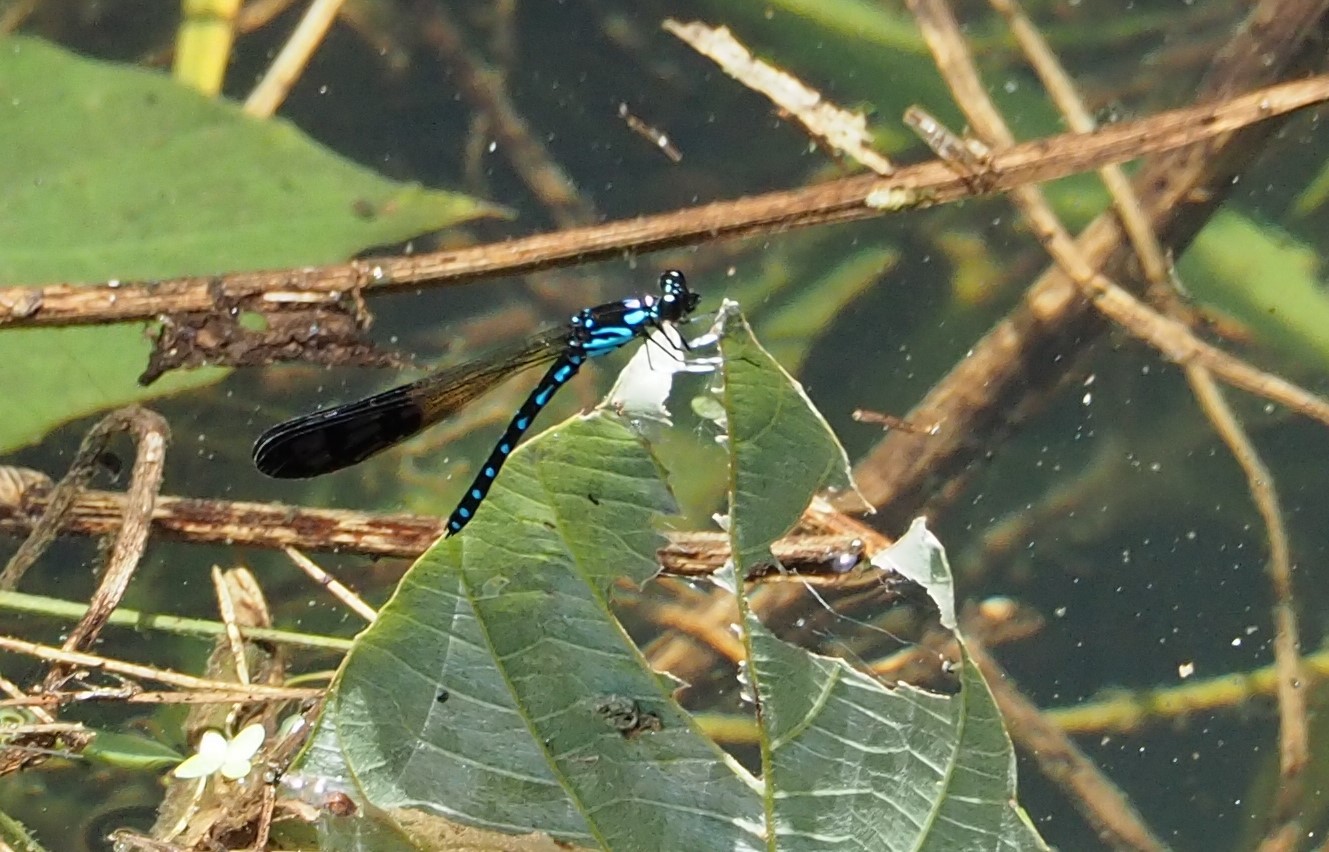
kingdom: Animalia
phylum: Arthropoda
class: Insecta
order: Odonata
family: Chlorocyphidae
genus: Heliocypha
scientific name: Heliocypha perforata
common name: Common blue jewel
